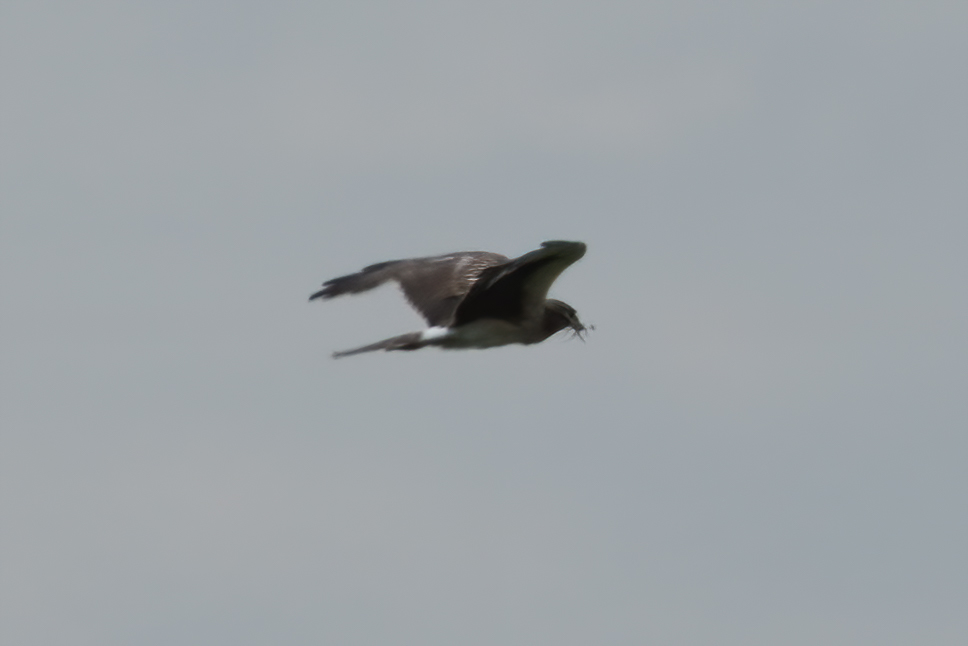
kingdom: Animalia
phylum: Chordata
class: Aves
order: Accipitriformes
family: Accipitridae
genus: Circus
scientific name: Circus cyaneus
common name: Hen harrier
